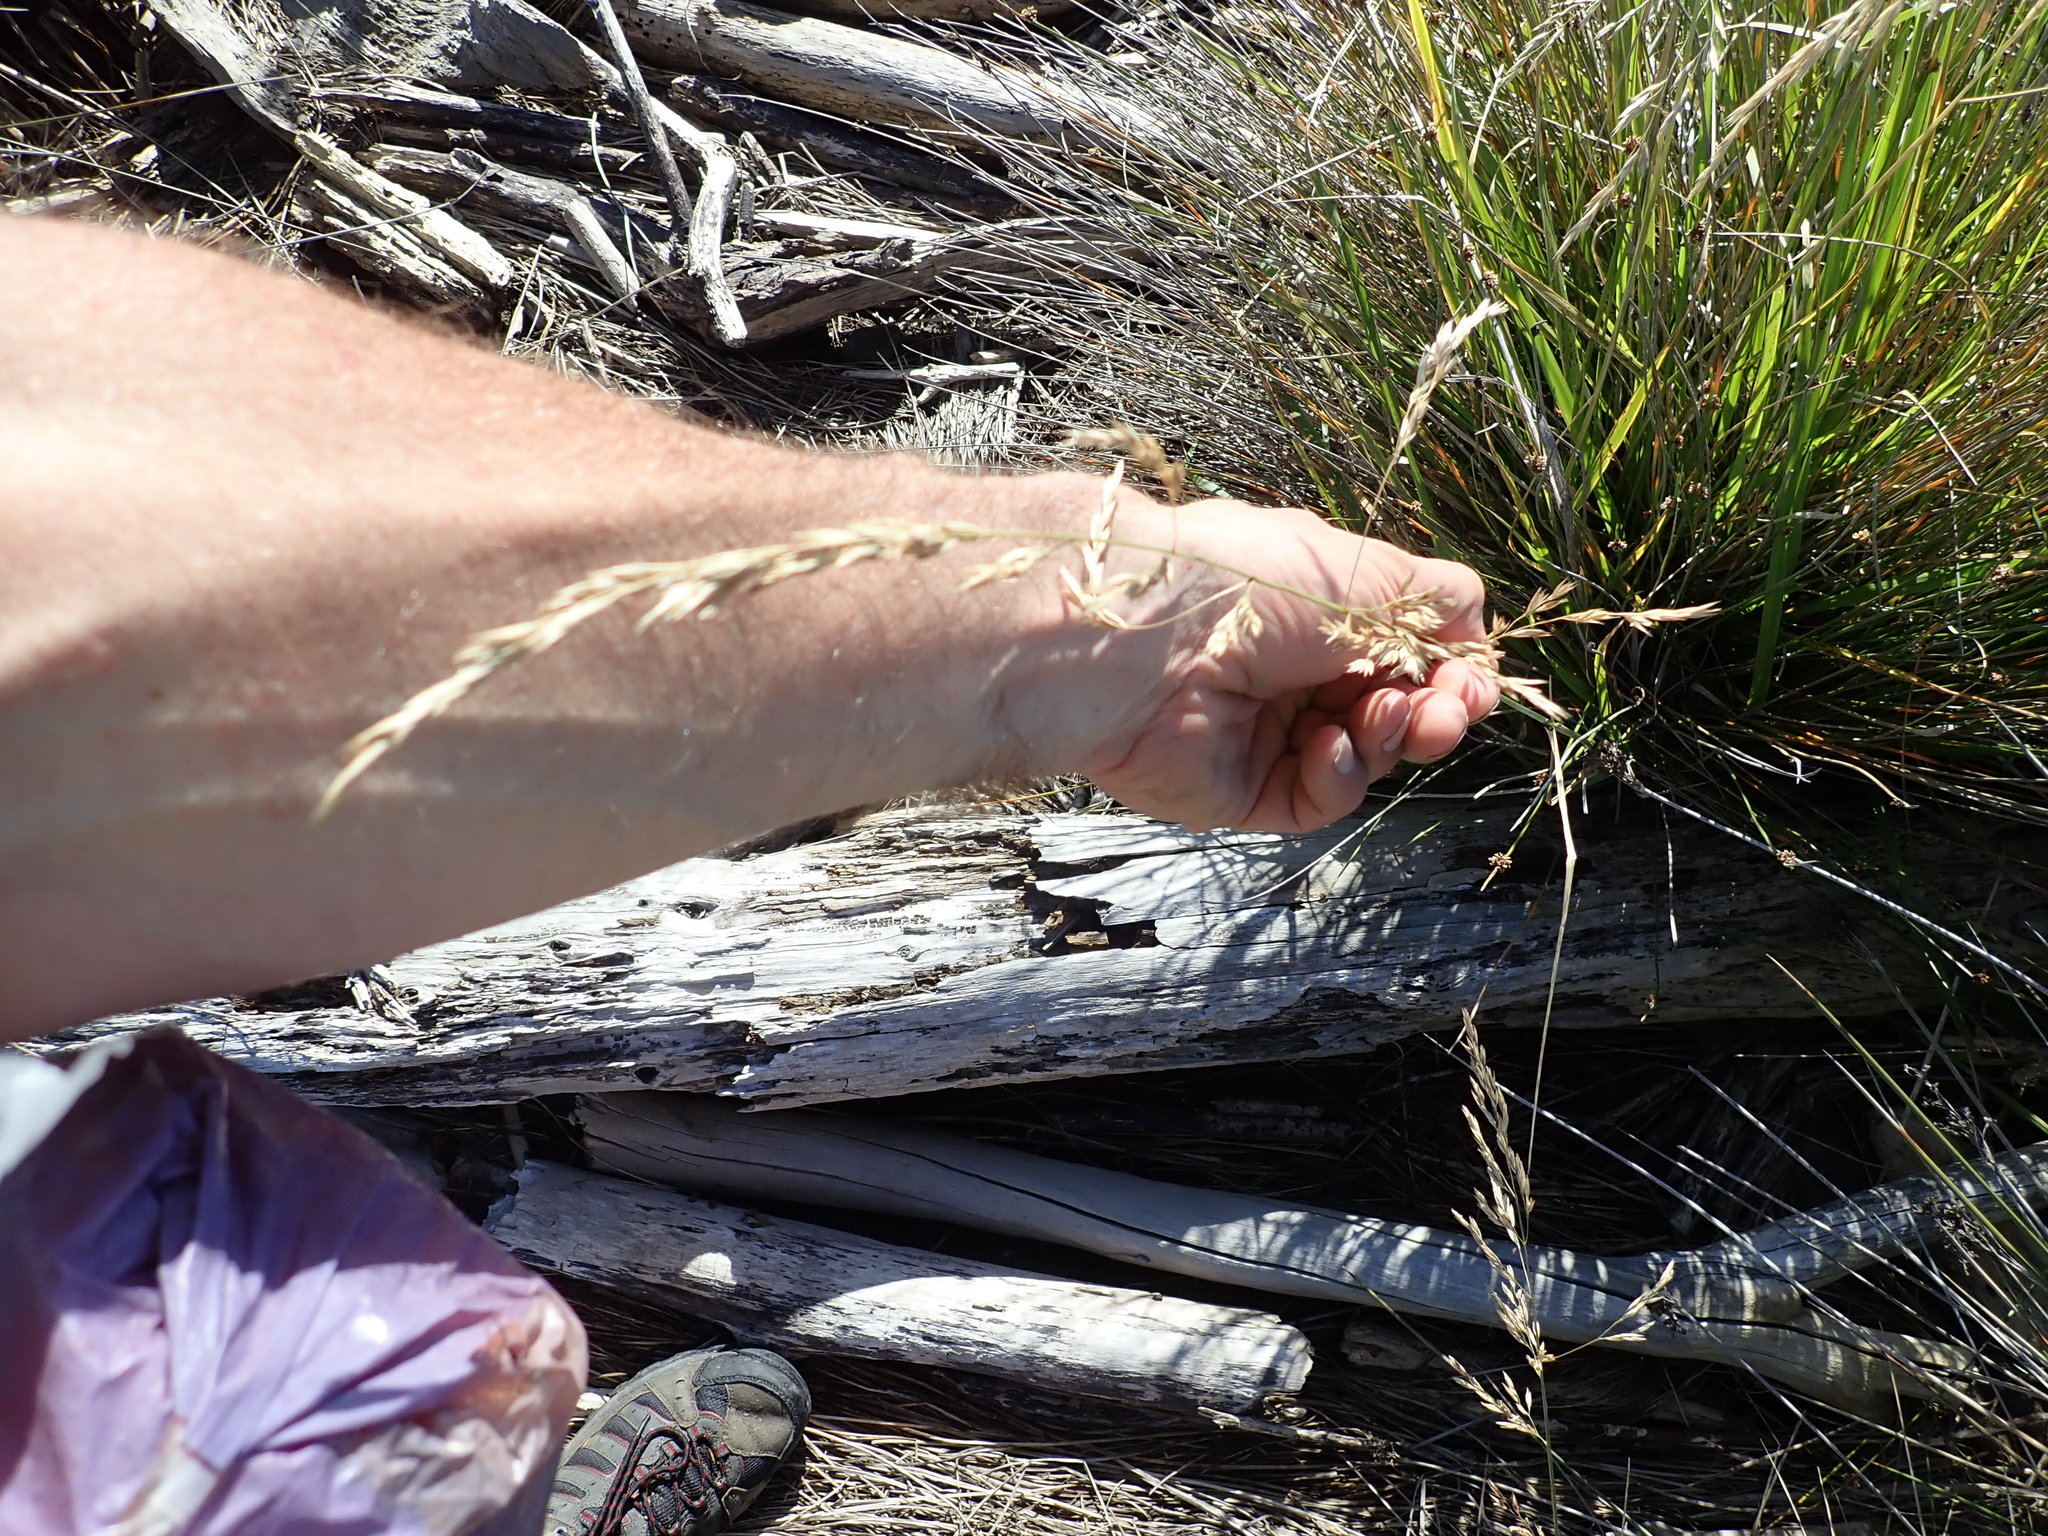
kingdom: Plantae
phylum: Tracheophyta
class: Liliopsida
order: Poales
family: Poaceae
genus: Lolium
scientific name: Lolium arundinaceum
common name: Reed fescue
